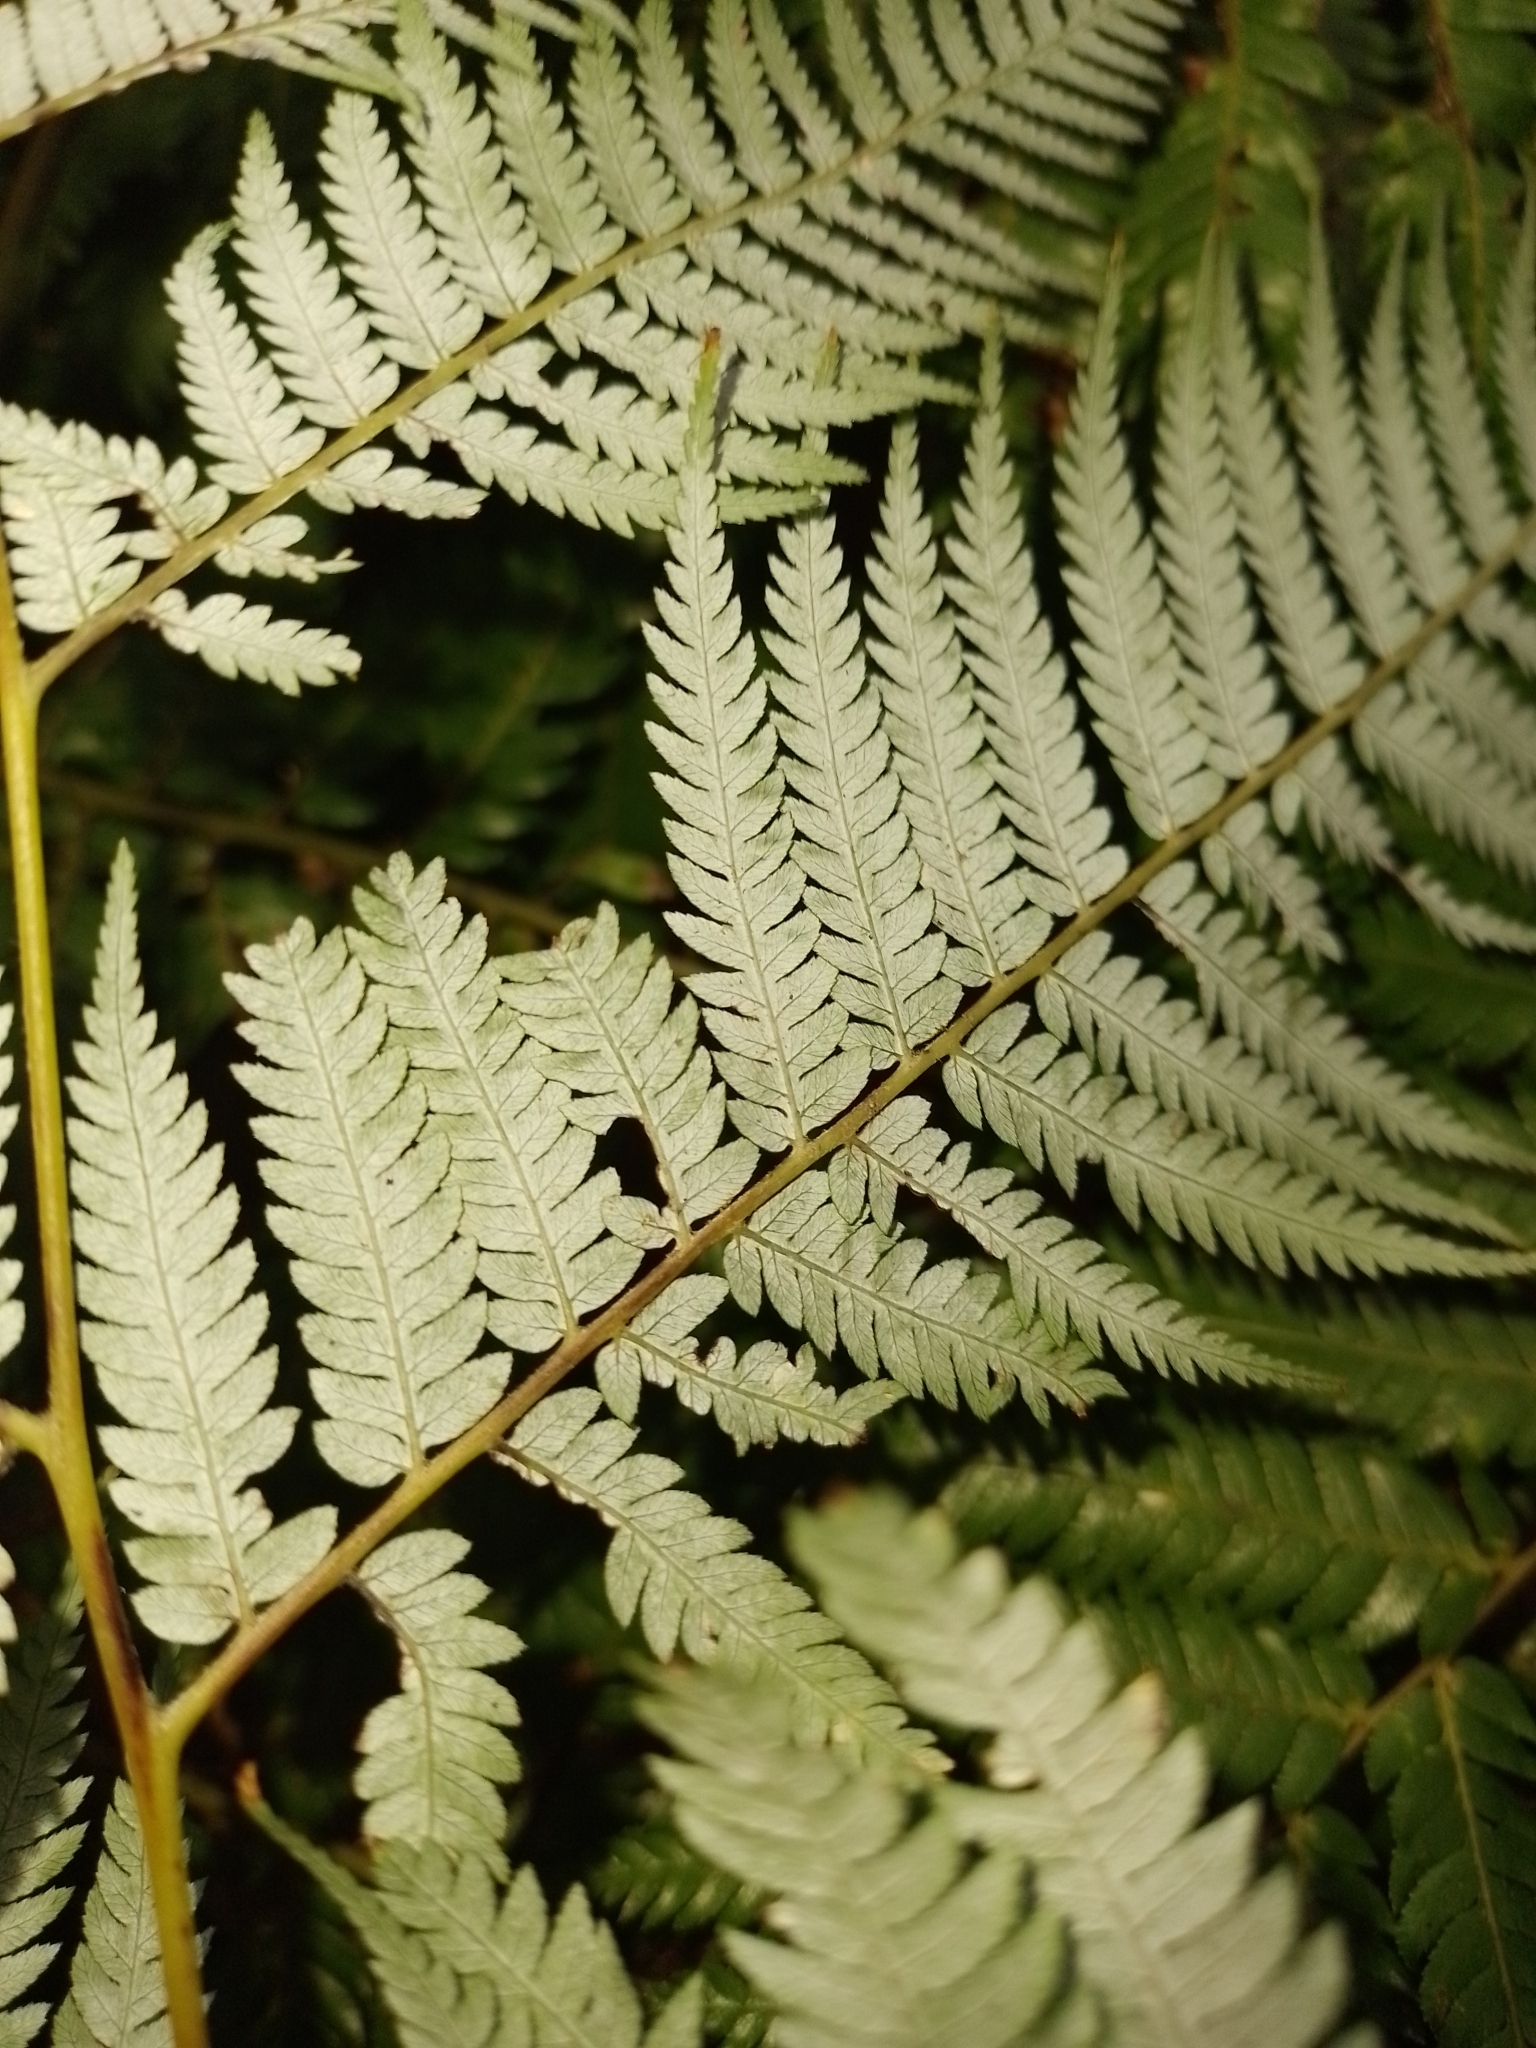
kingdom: Plantae
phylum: Tracheophyta
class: Polypodiopsida
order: Cyatheales
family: Cyatheaceae
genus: Alsophila
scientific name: Alsophila dealbata
